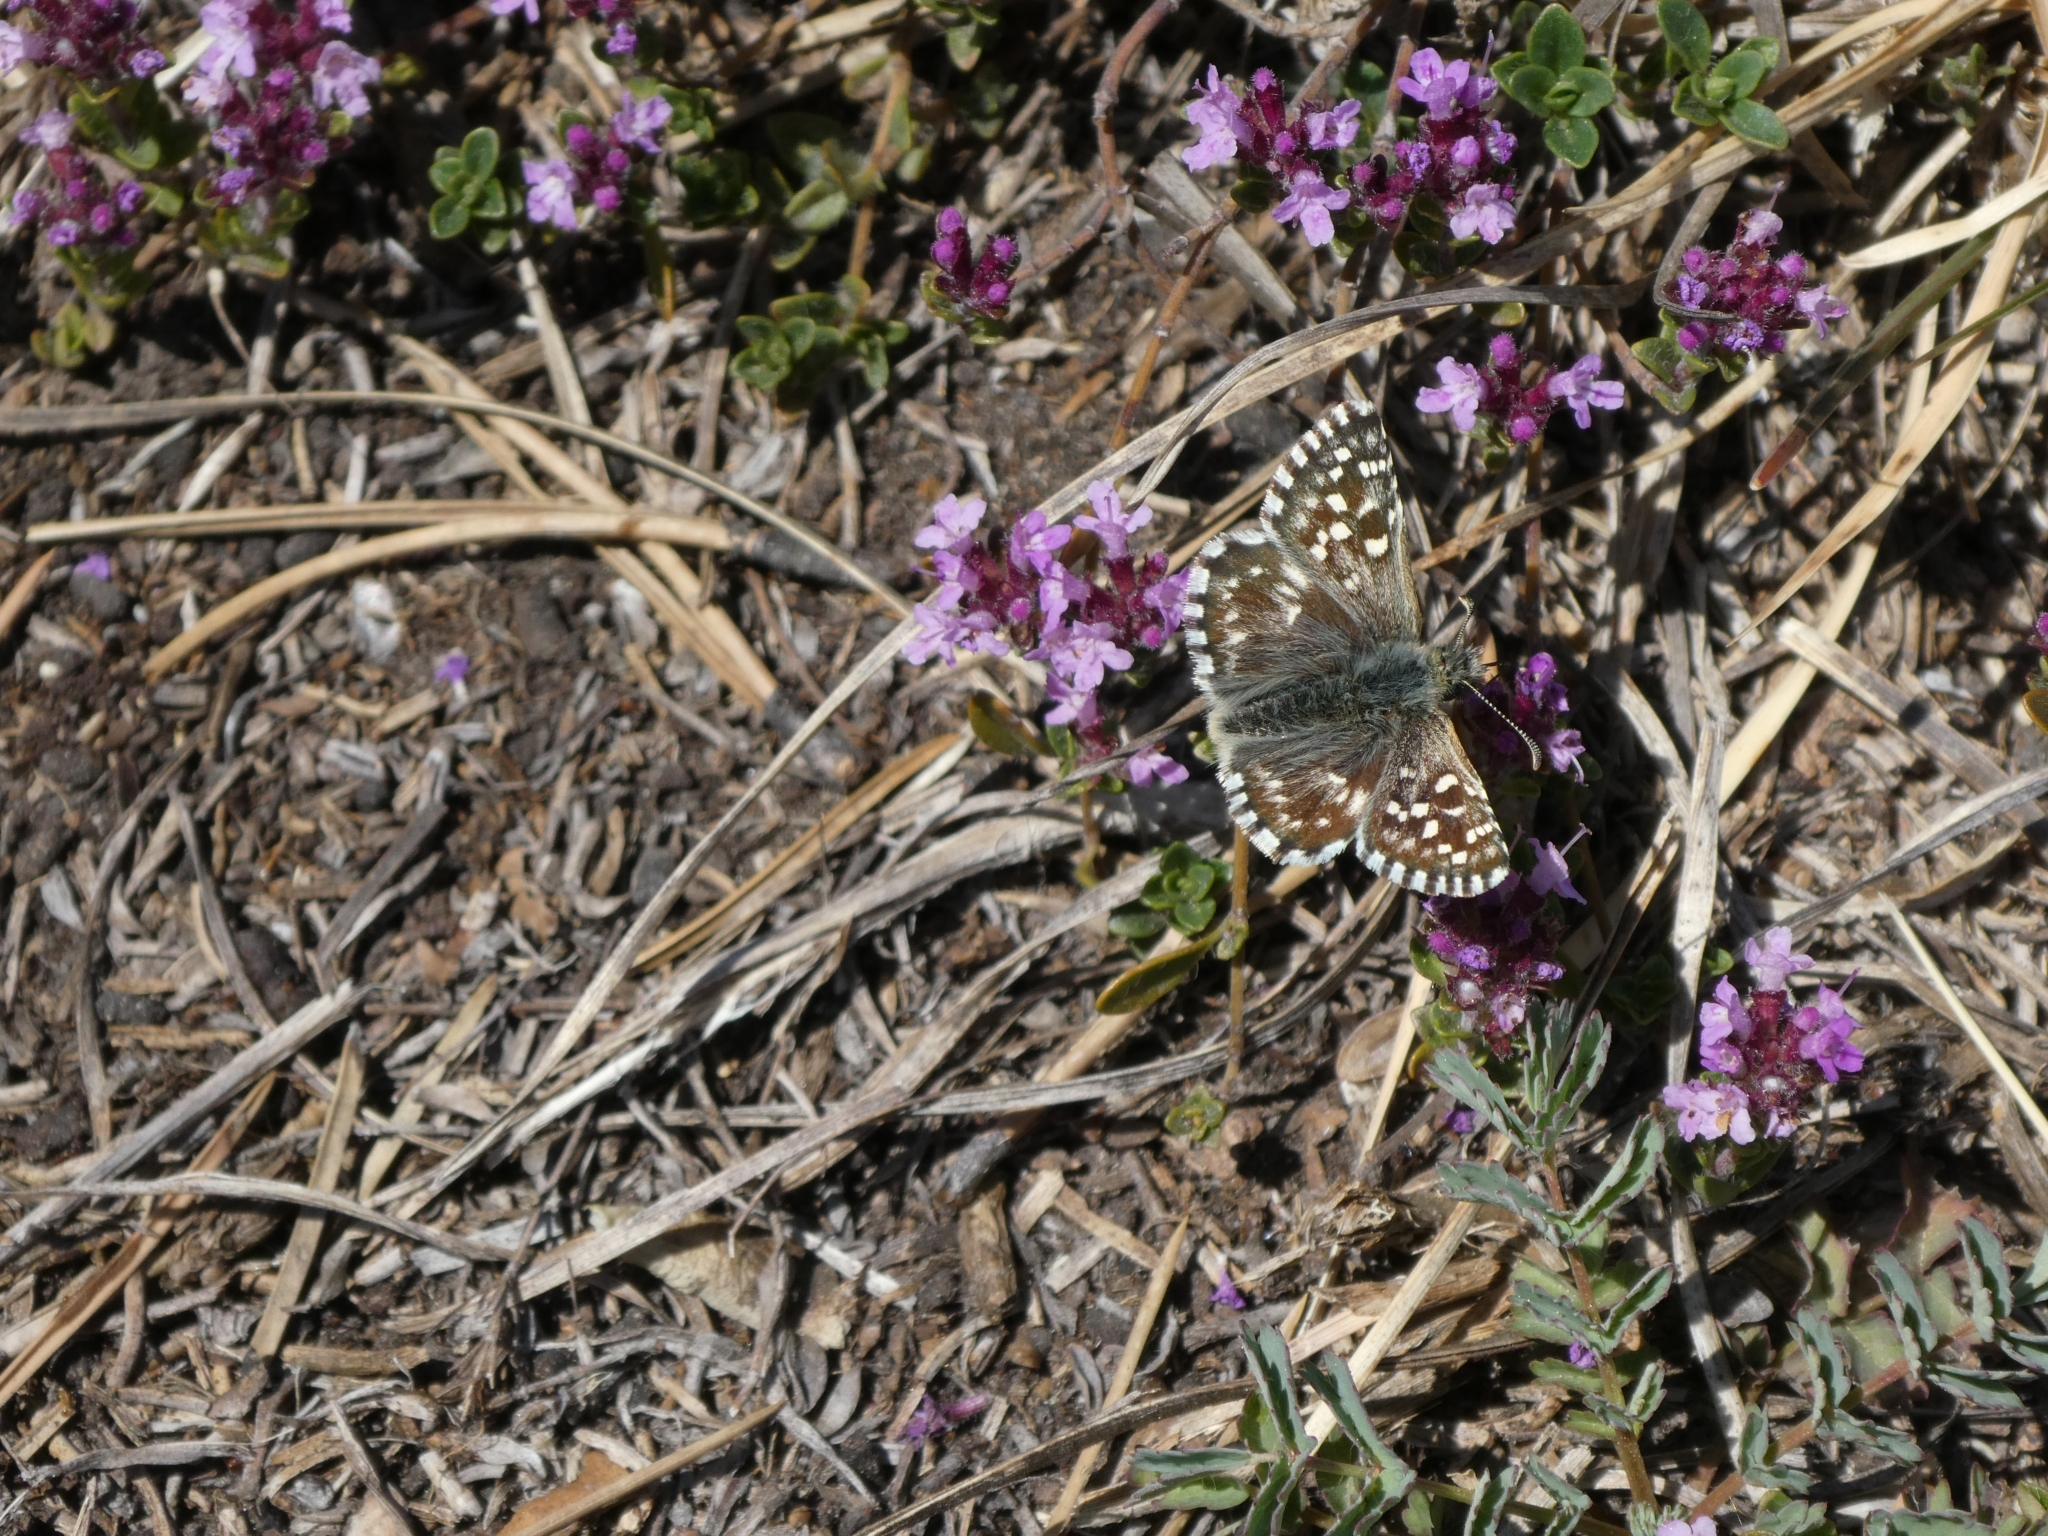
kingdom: Animalia
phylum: Arthropoda
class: Insecta
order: Lepidoptera
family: Hesperiidae
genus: Pyrgus
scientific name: Pyrgus malvae
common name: Grizzled skipper
